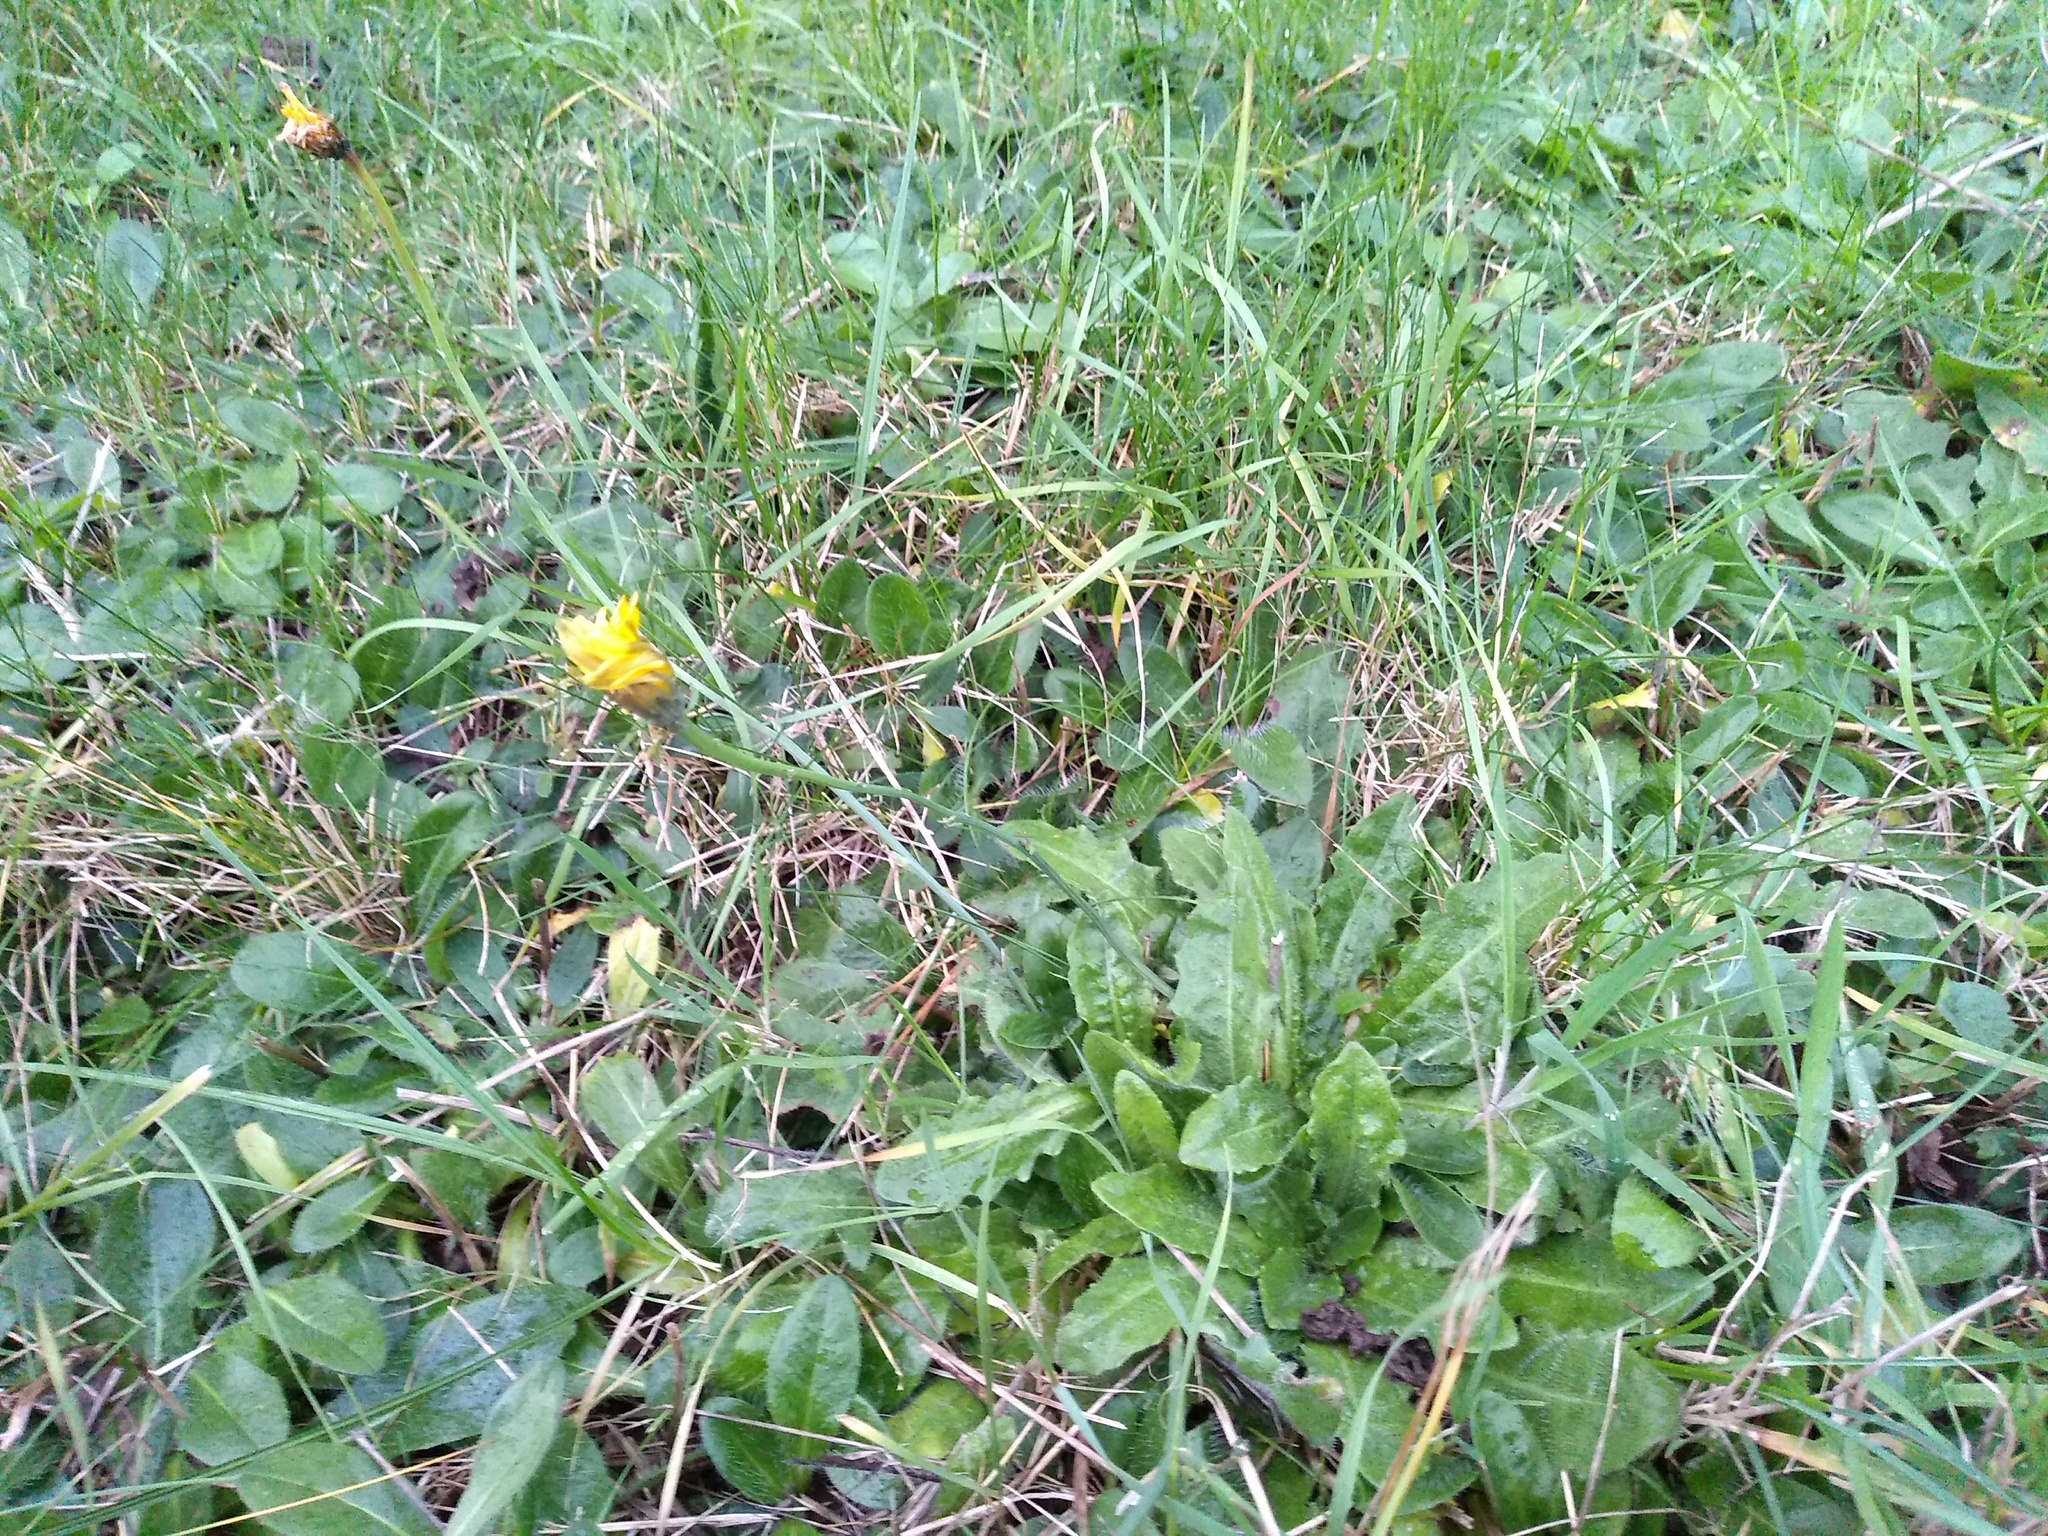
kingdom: Plantae
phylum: Tracheophyta
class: Magnoliopsida
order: Asterales
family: Asteraceae
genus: Hypochaeris
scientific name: Hypochaeris radicata
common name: Flatweed
